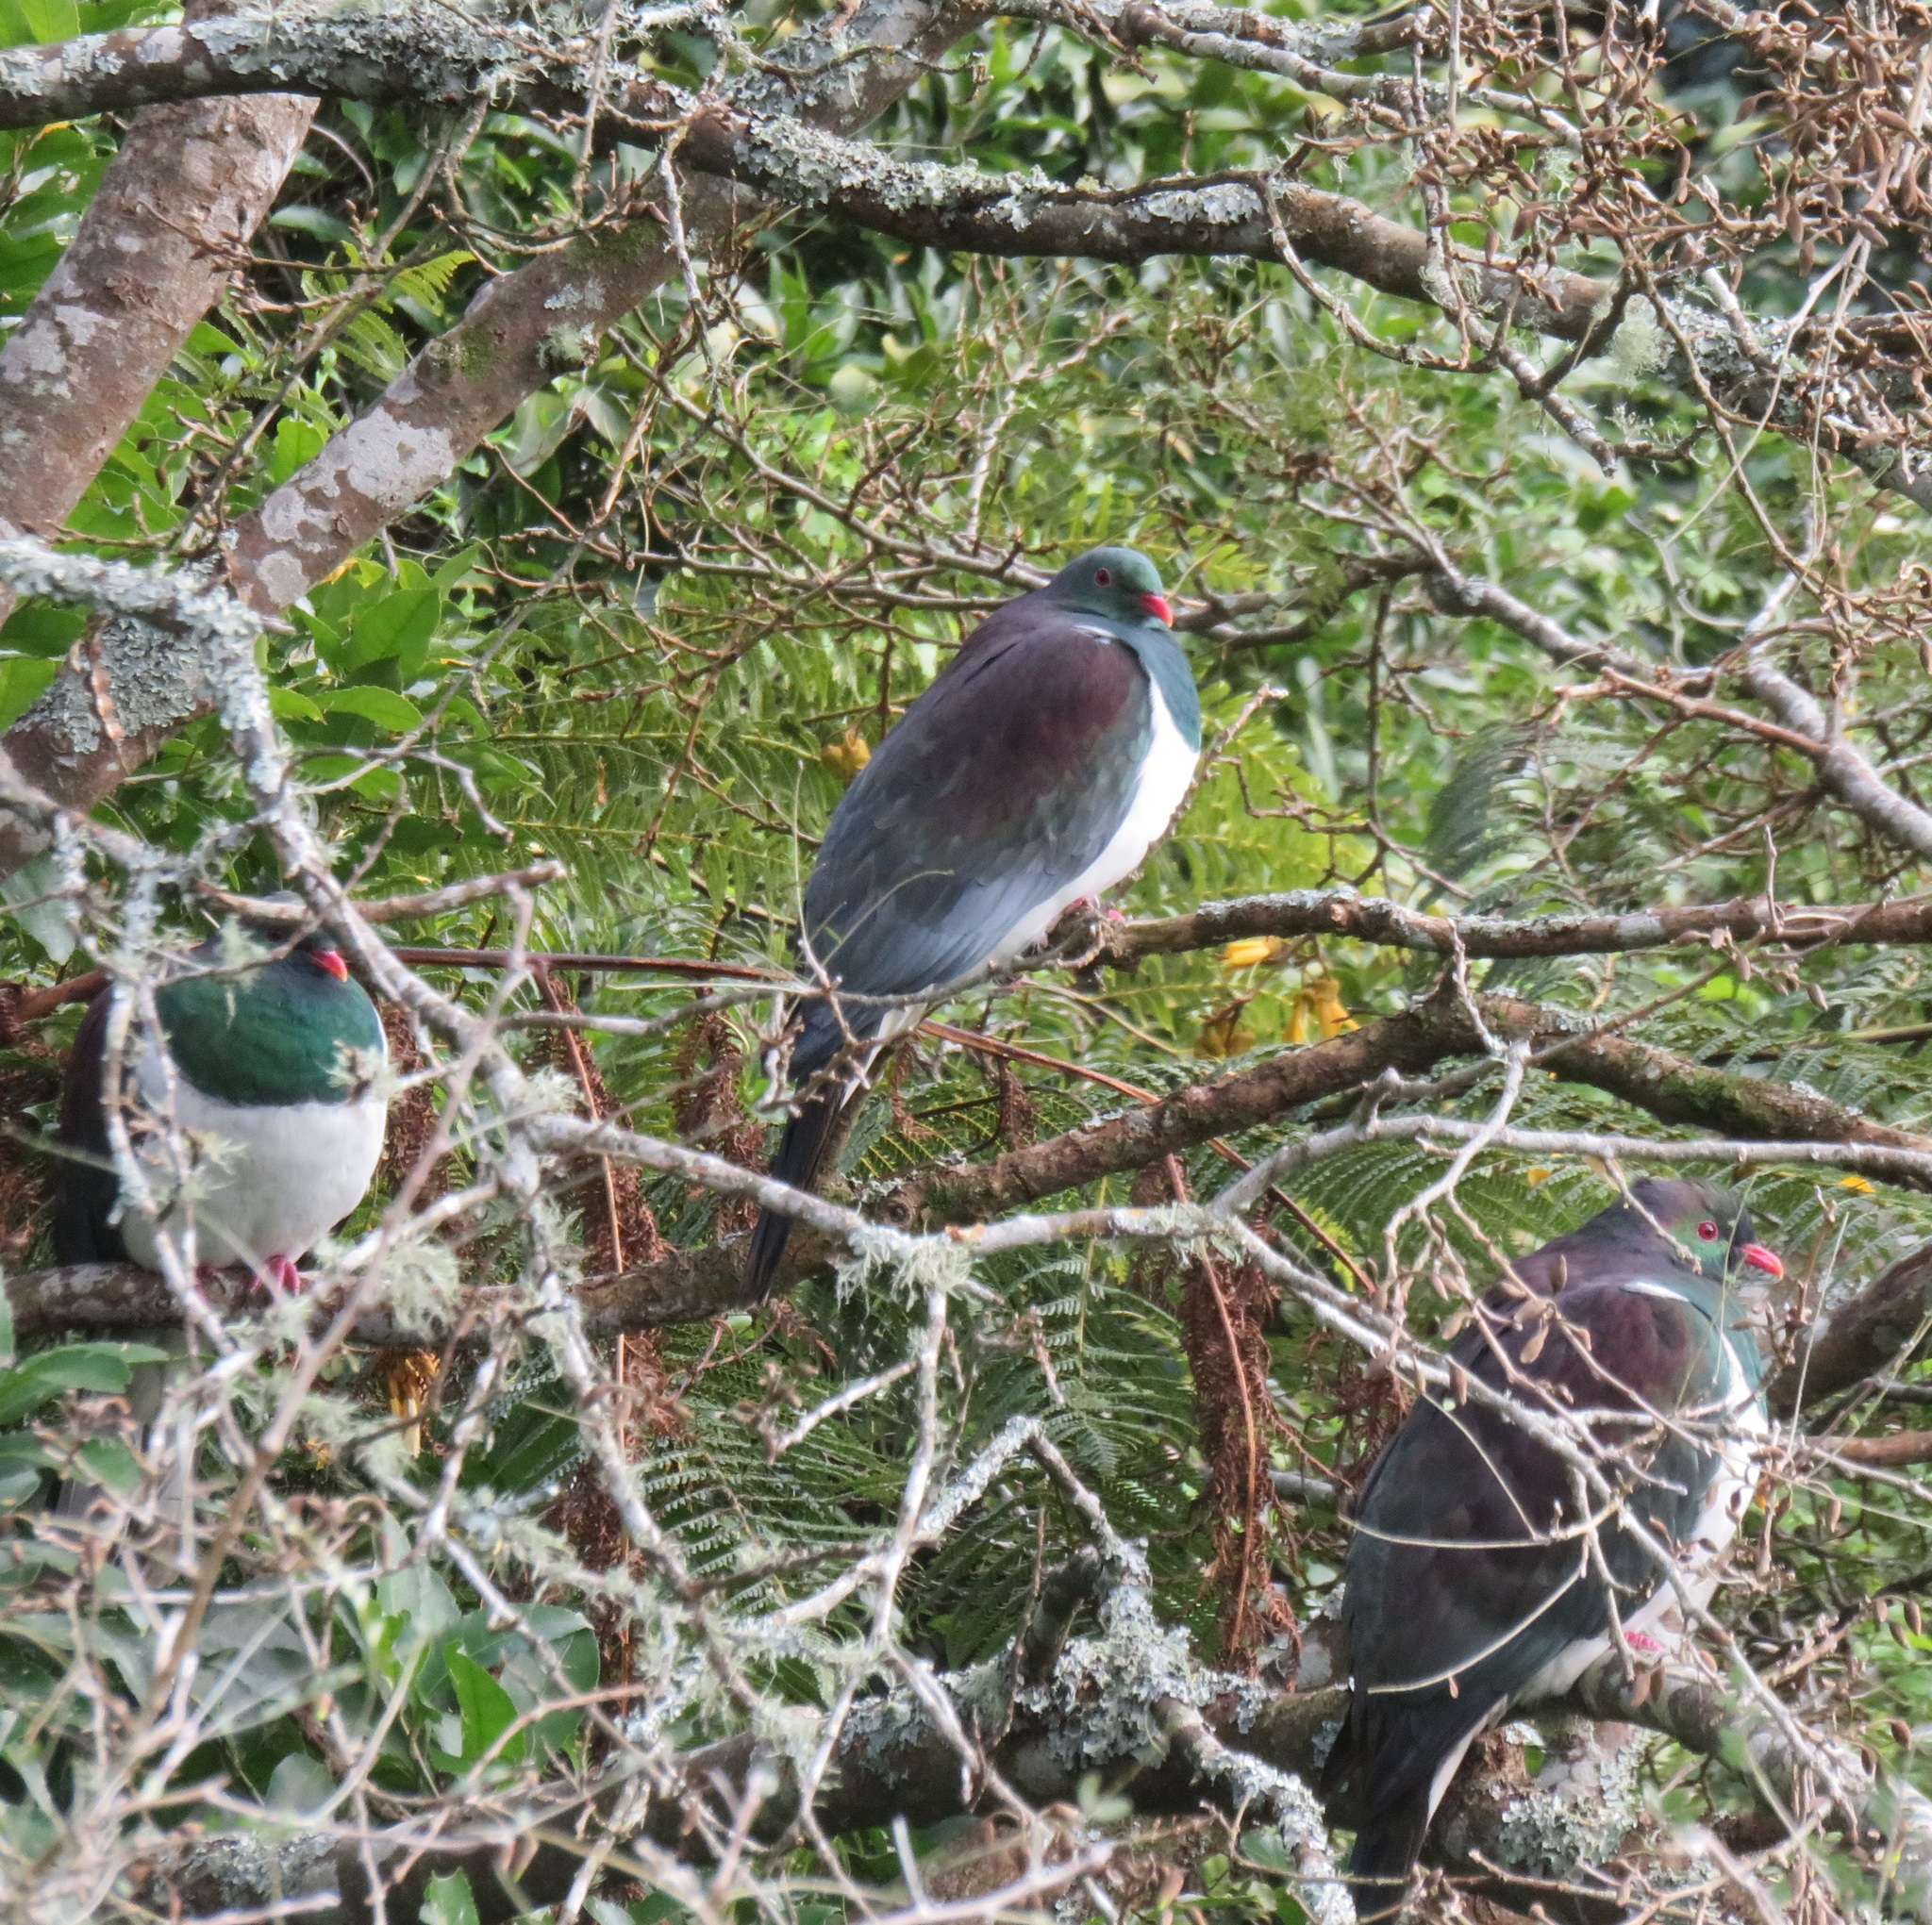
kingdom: Animalia
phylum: Chordata
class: Aves
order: Columbiformes
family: Columbidae
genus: Hemiphaga
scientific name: Hemiphaga novaeseelandiae
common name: New zealand pigeon
